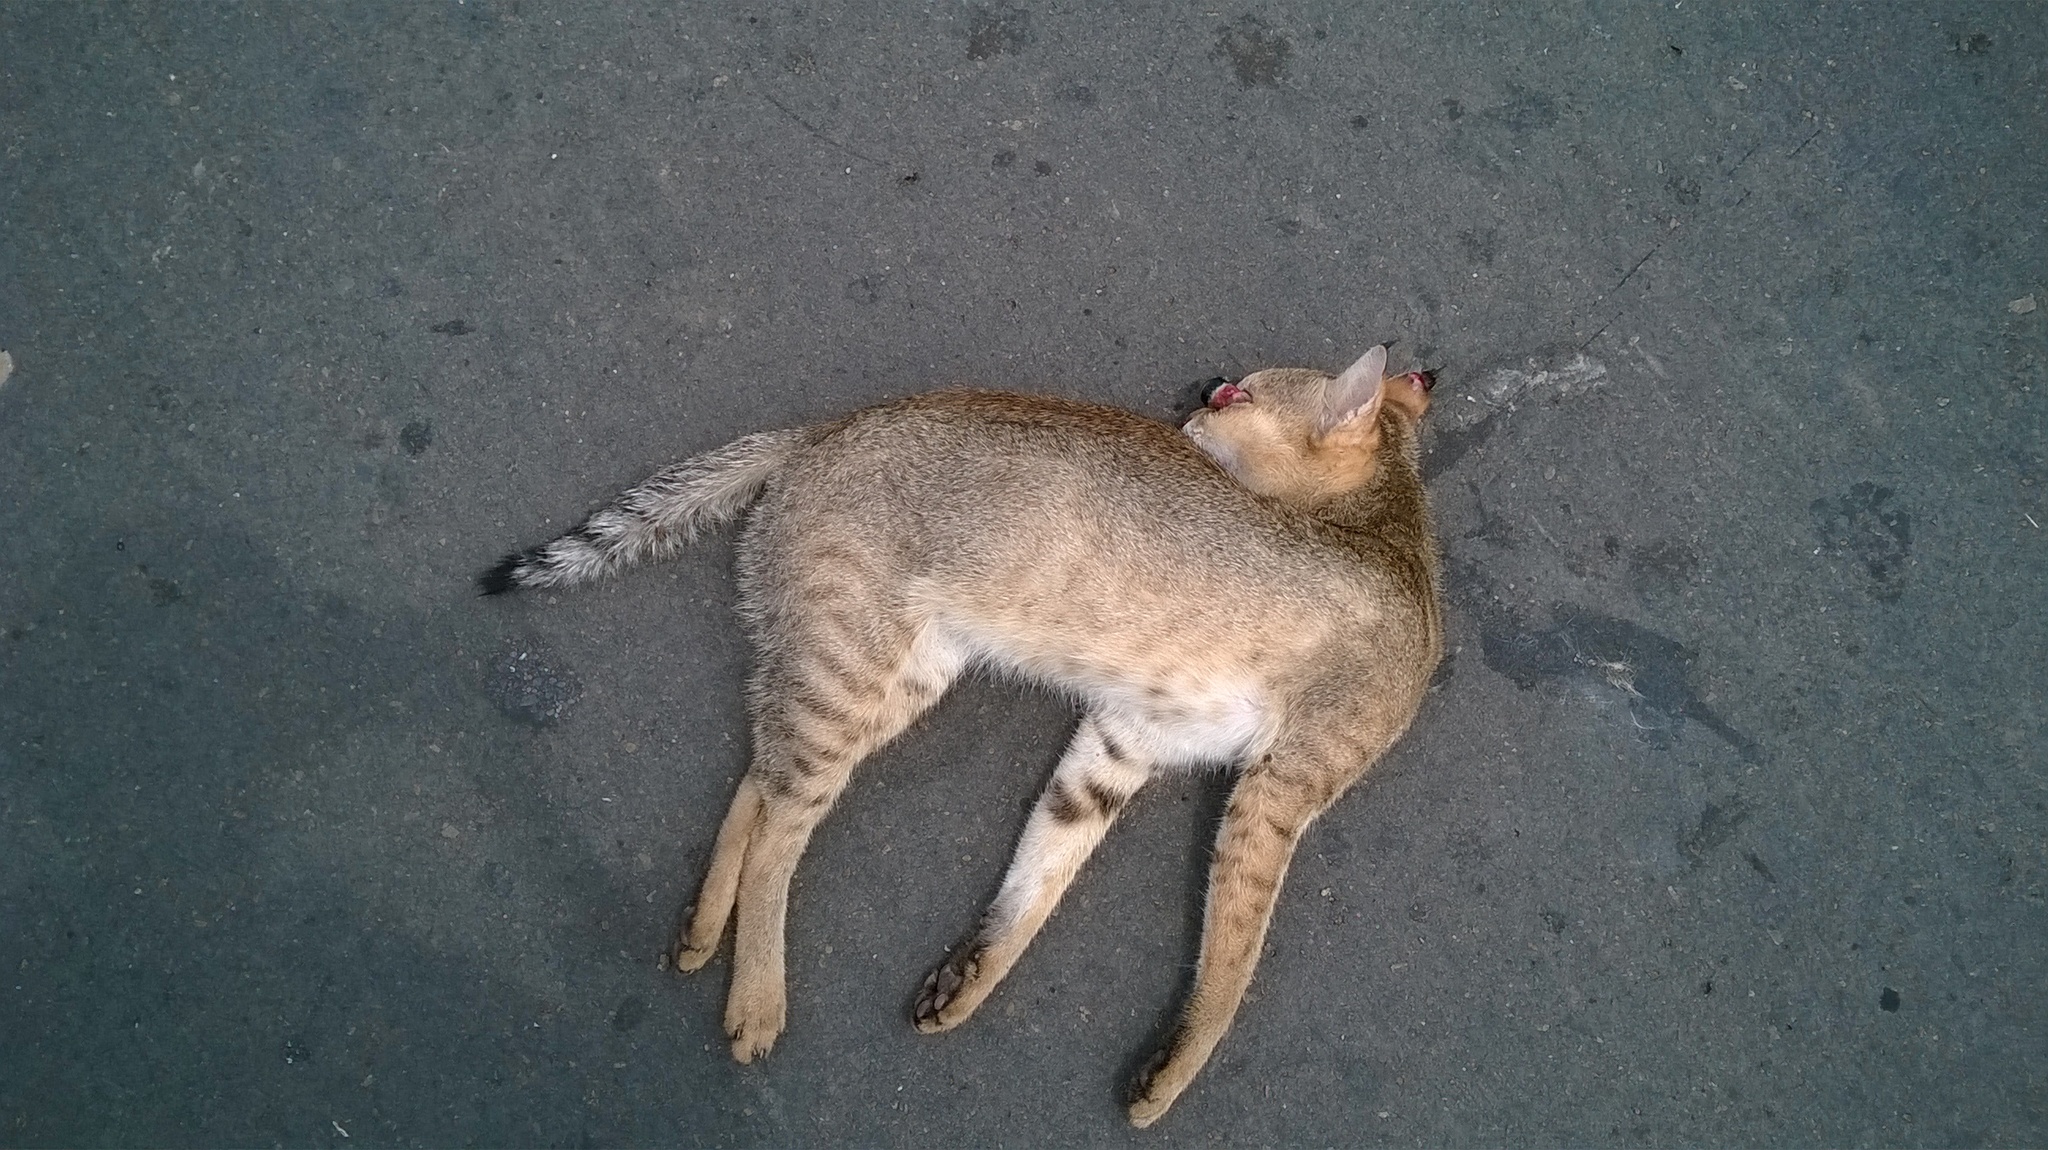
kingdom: Animalia
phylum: Chordata
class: Mammalia
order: Carnivora
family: Felidae
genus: Felis
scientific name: Felis chaus
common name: Jungle cat
